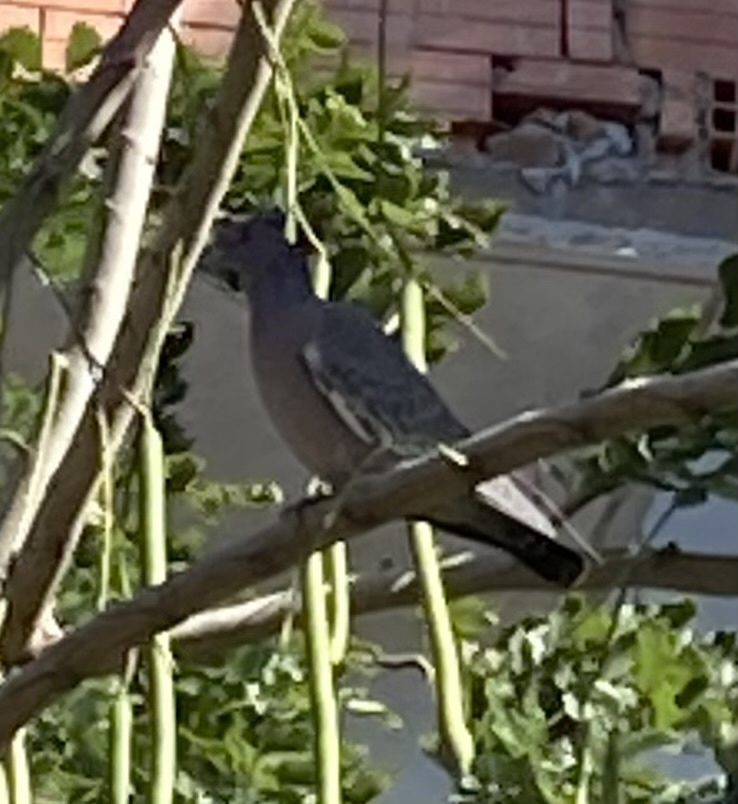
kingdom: Animalia
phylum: Chordata
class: Aves
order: Columbiformes
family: Columbidae
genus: Patagioenas
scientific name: Patagioenas picazuro
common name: Picazuro pigeon
